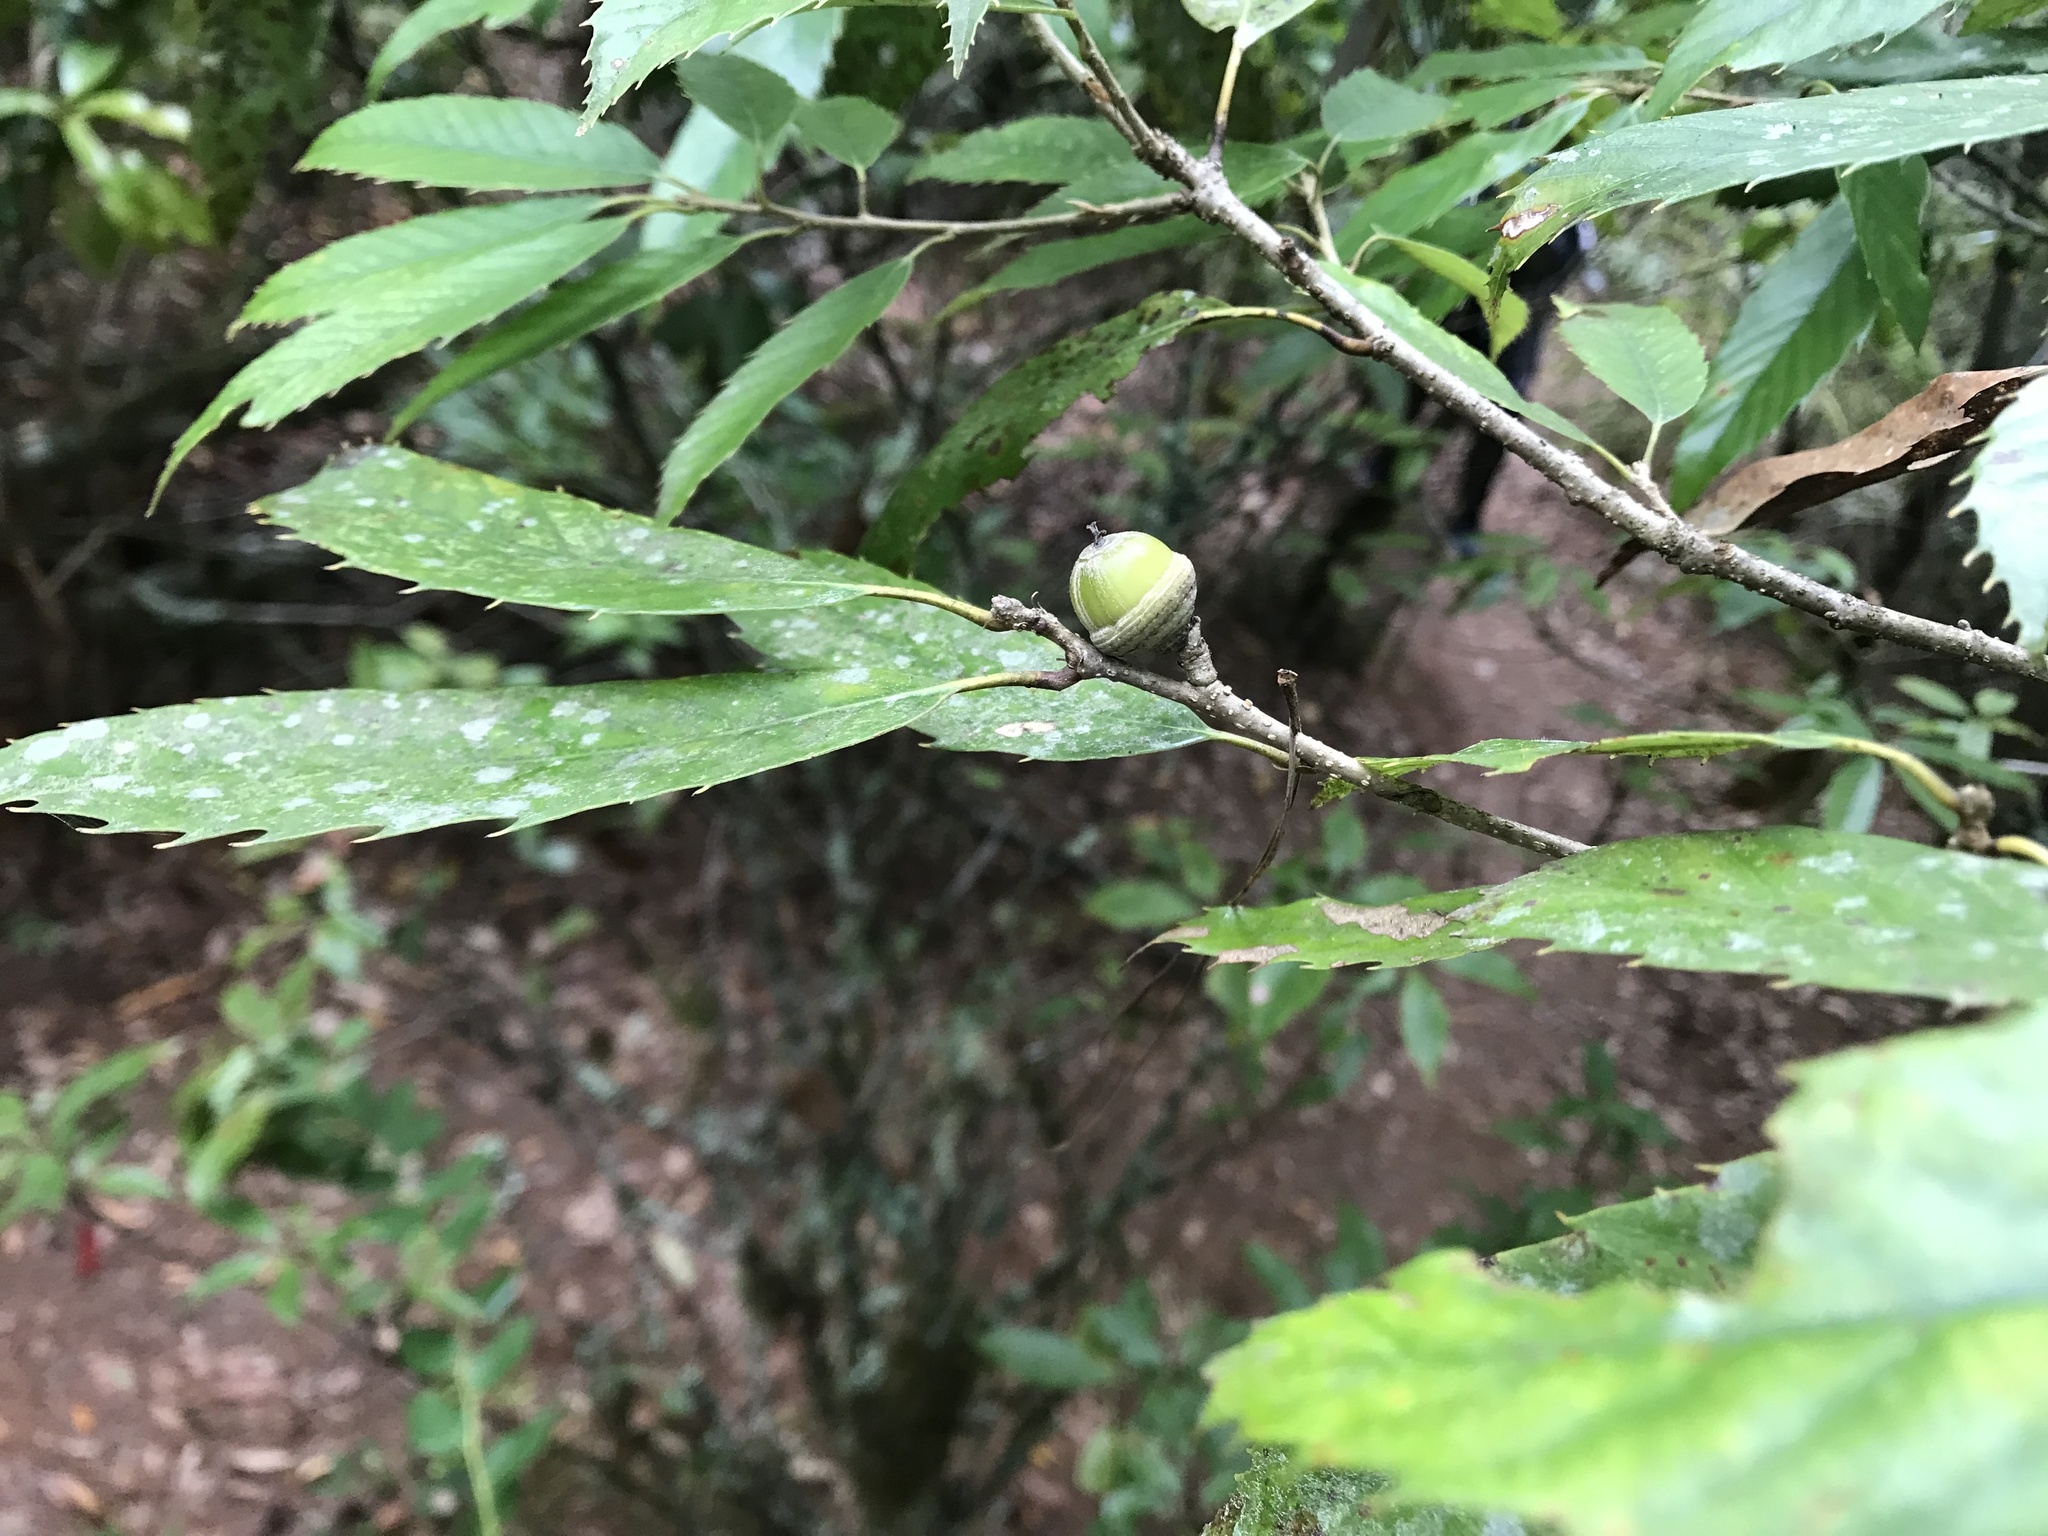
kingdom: Plantae
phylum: Tracheophyta
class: Magnoliopsida
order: Fagales
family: Fagaceae
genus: Quercus
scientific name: Quercus stenophylloides
